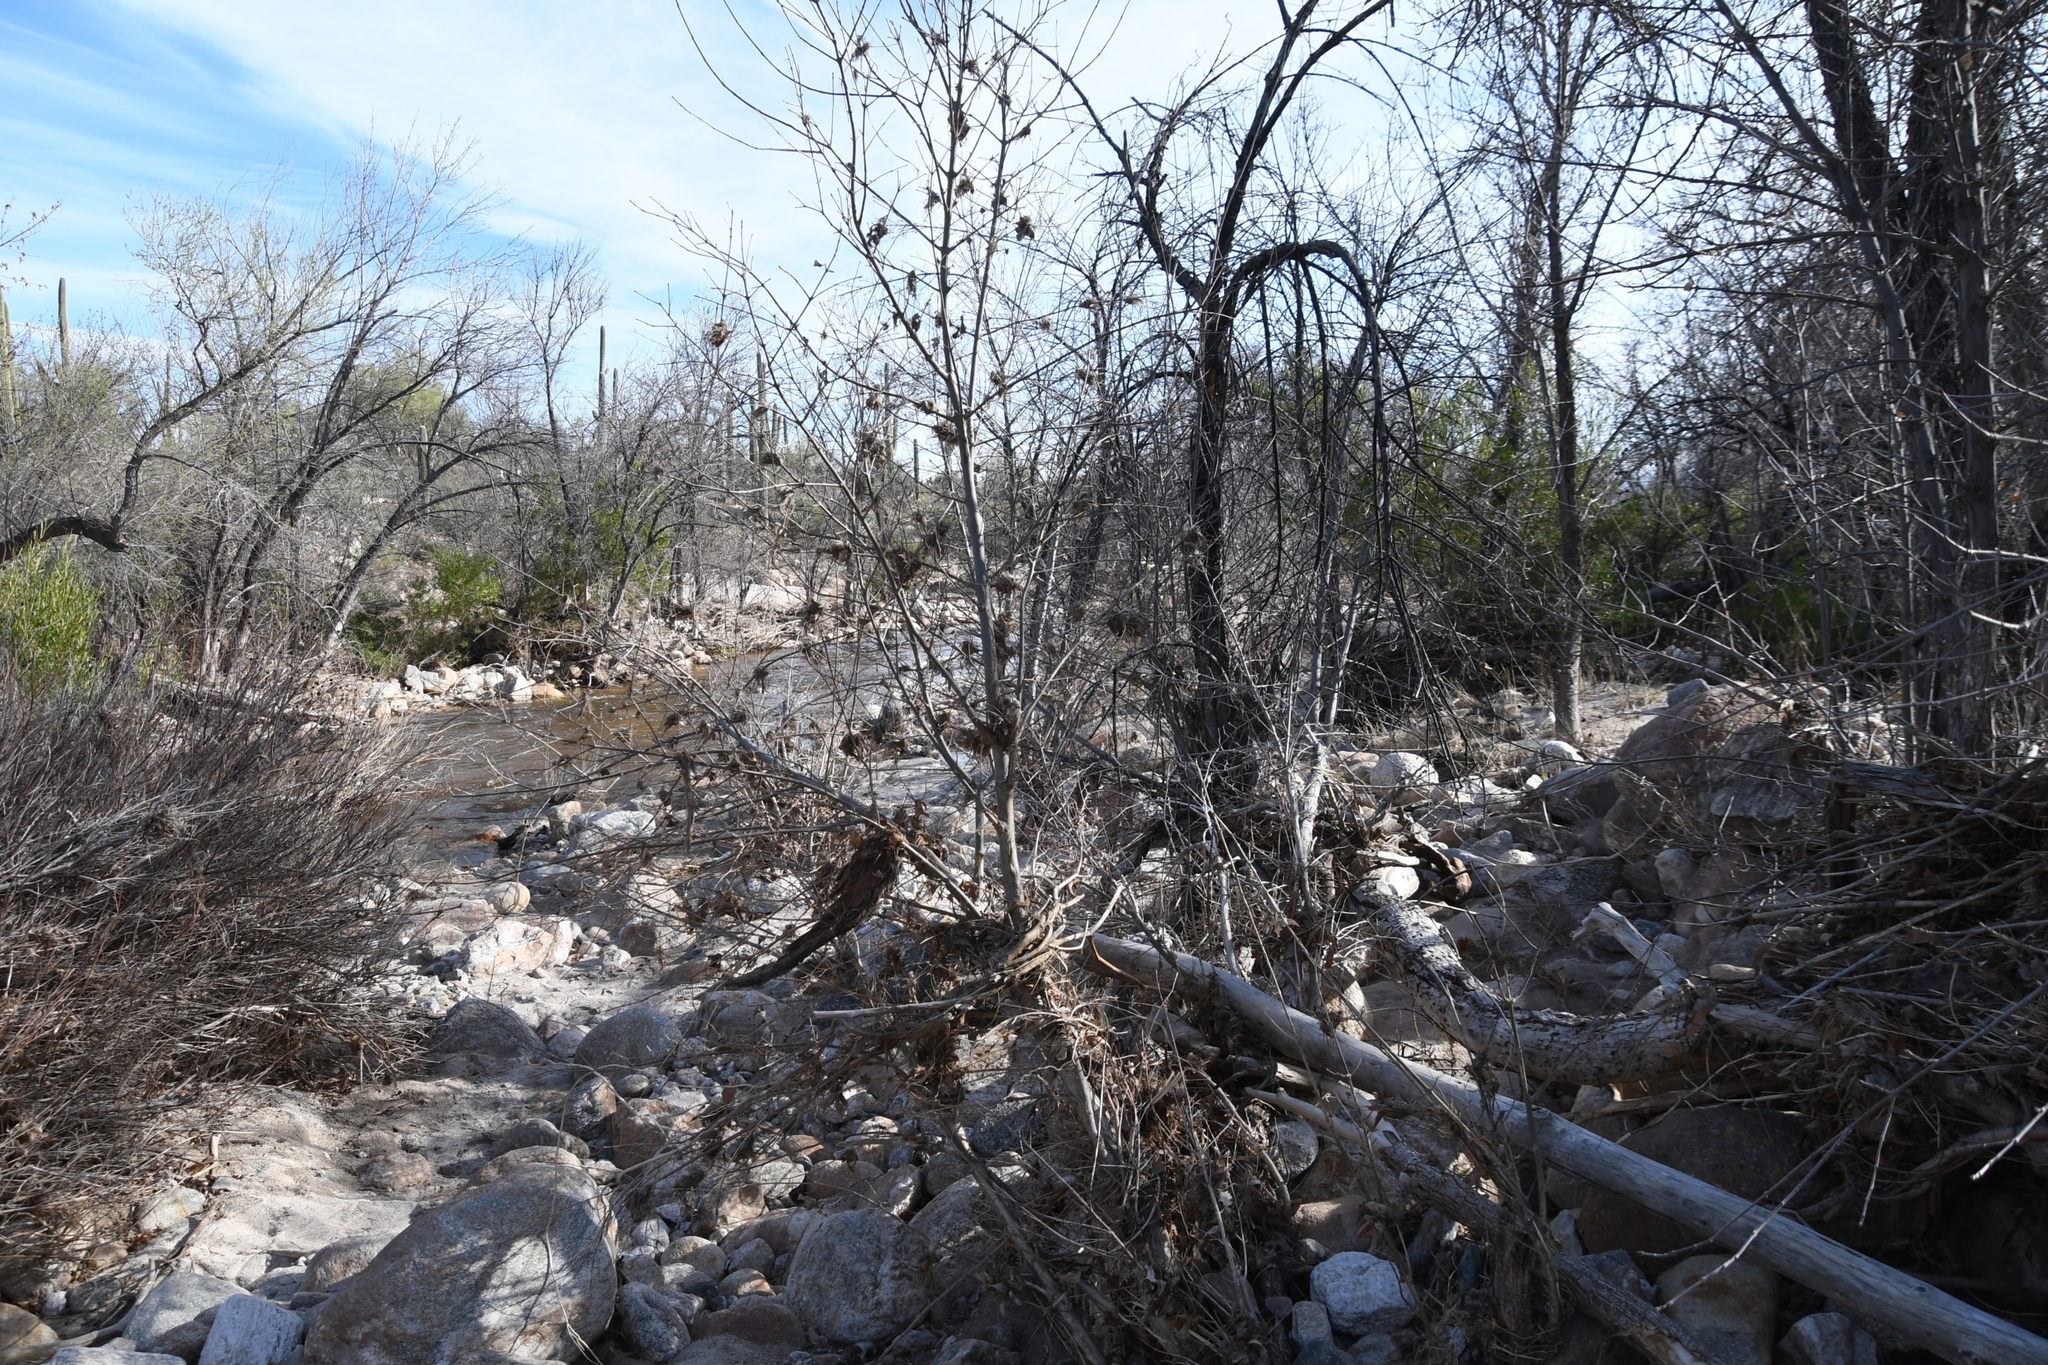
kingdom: Animalia
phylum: Chordata
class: Aves
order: Apodiformes
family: Trochilidae
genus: Cynanthus
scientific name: Cynanthus latirostris
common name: Broad-billed hummingbird
